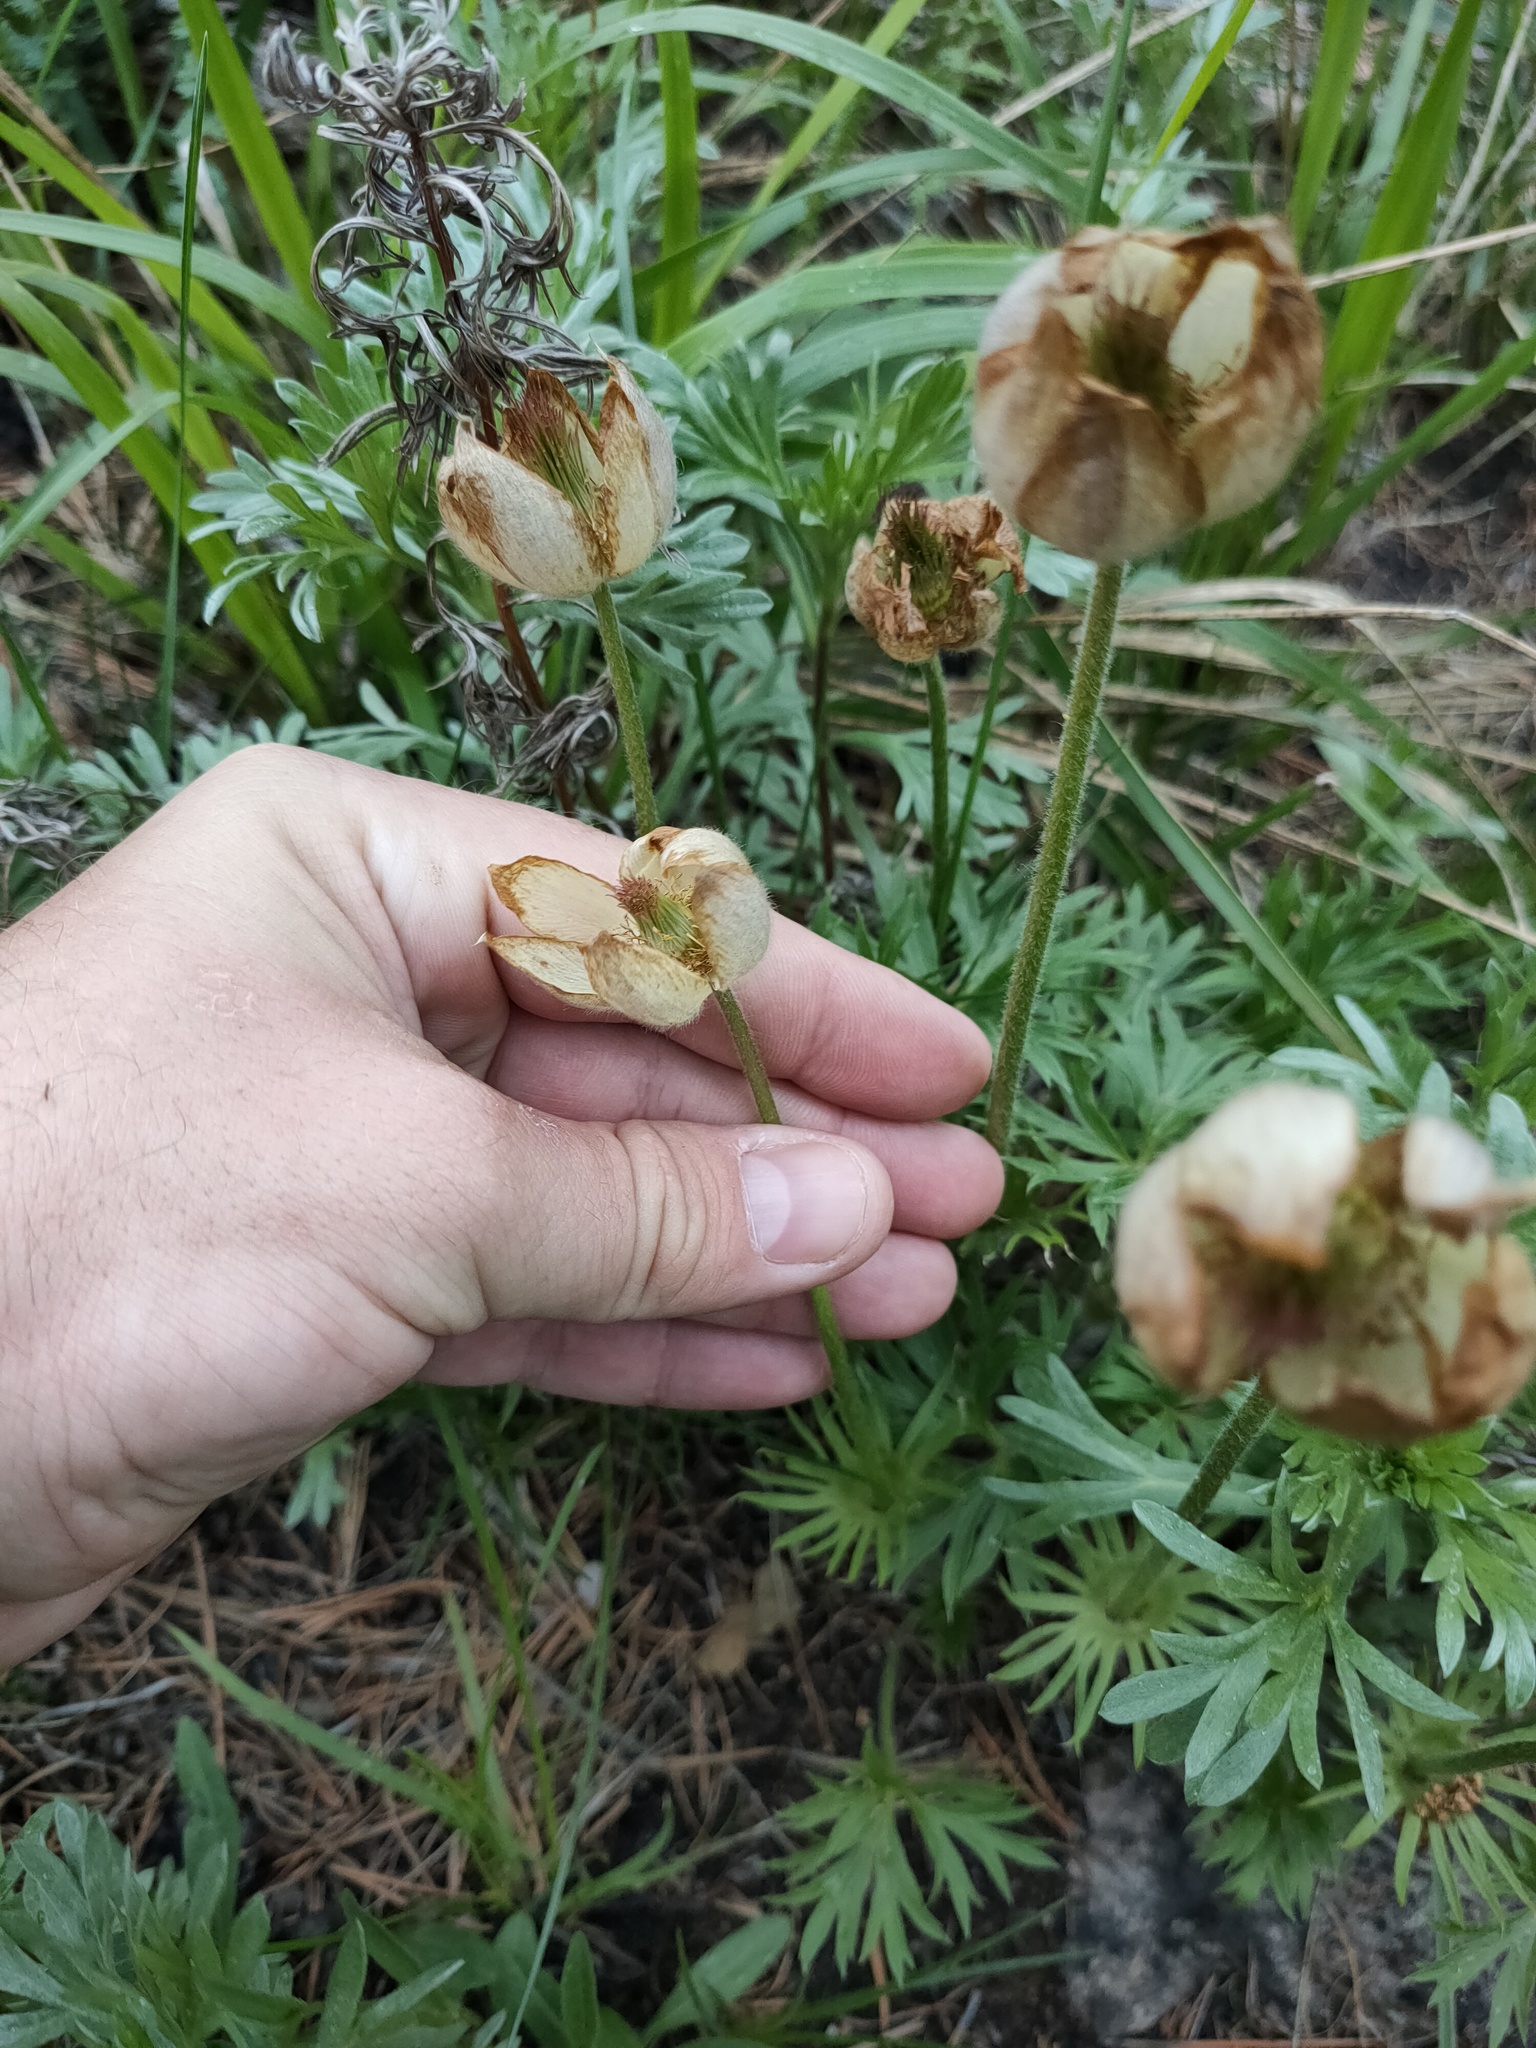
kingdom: Plantae
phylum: Tracheophyta
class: Magnoliopsida
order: Ranunculales
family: Ranunculaceae
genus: Pulsatilla
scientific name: Pulsatilla patens
